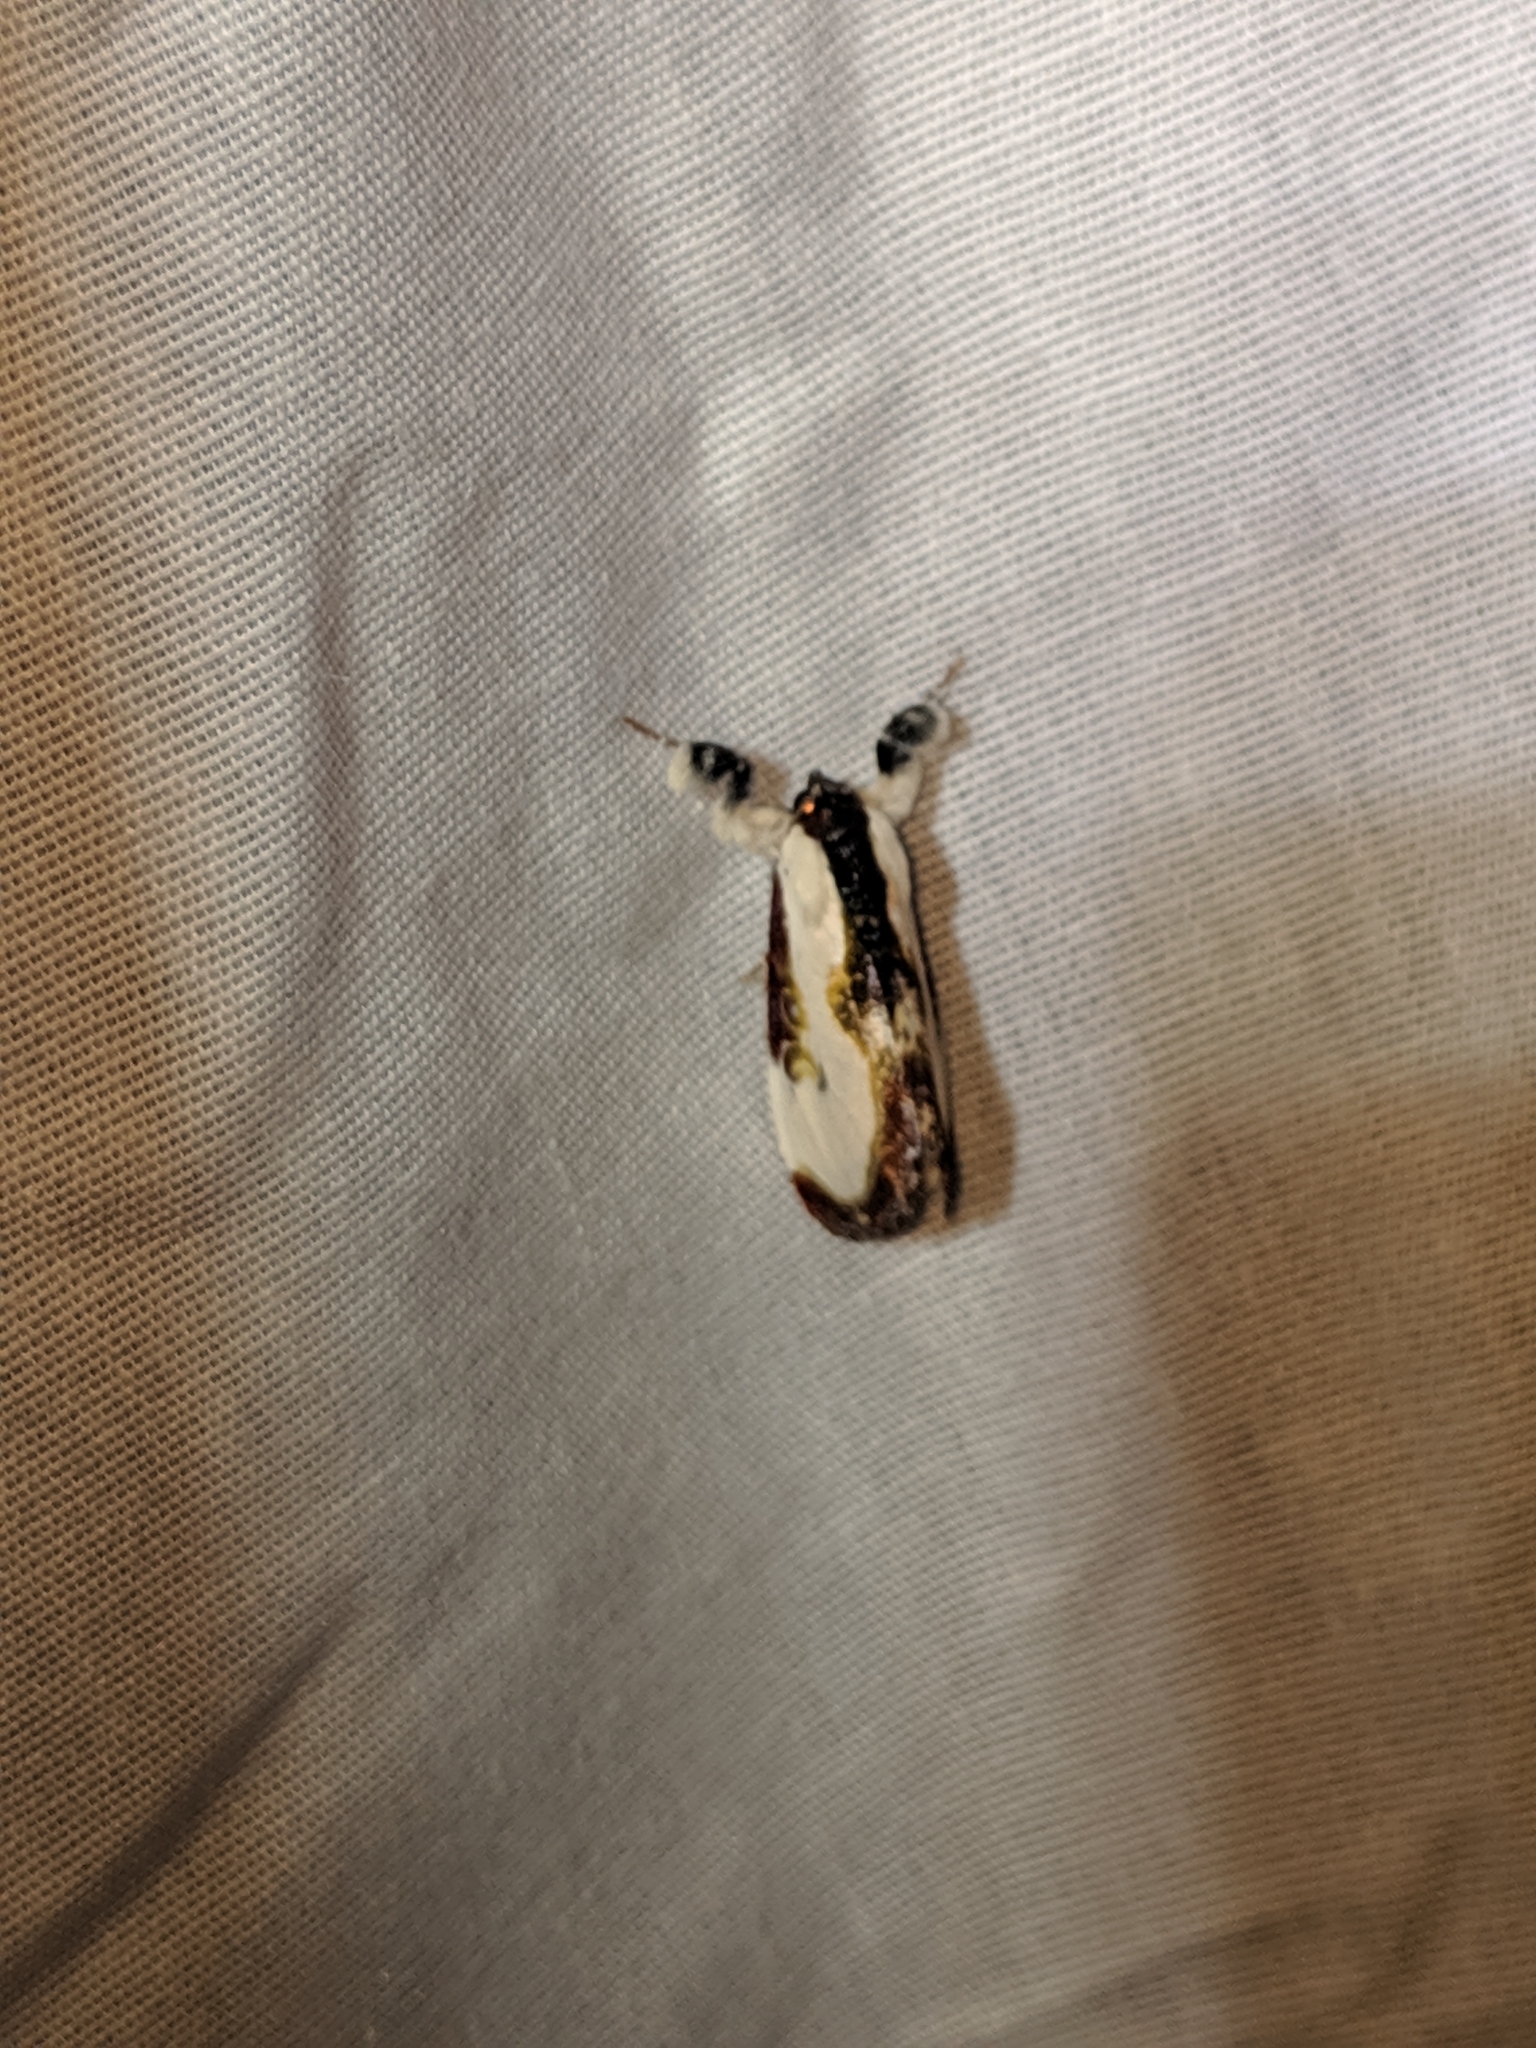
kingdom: Animalia
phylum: Arthropoda
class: Insecta
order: Lepidoptera
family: Noctuidae
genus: Eudryas
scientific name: Eudryas grata
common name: Beautiful wood-nymph
